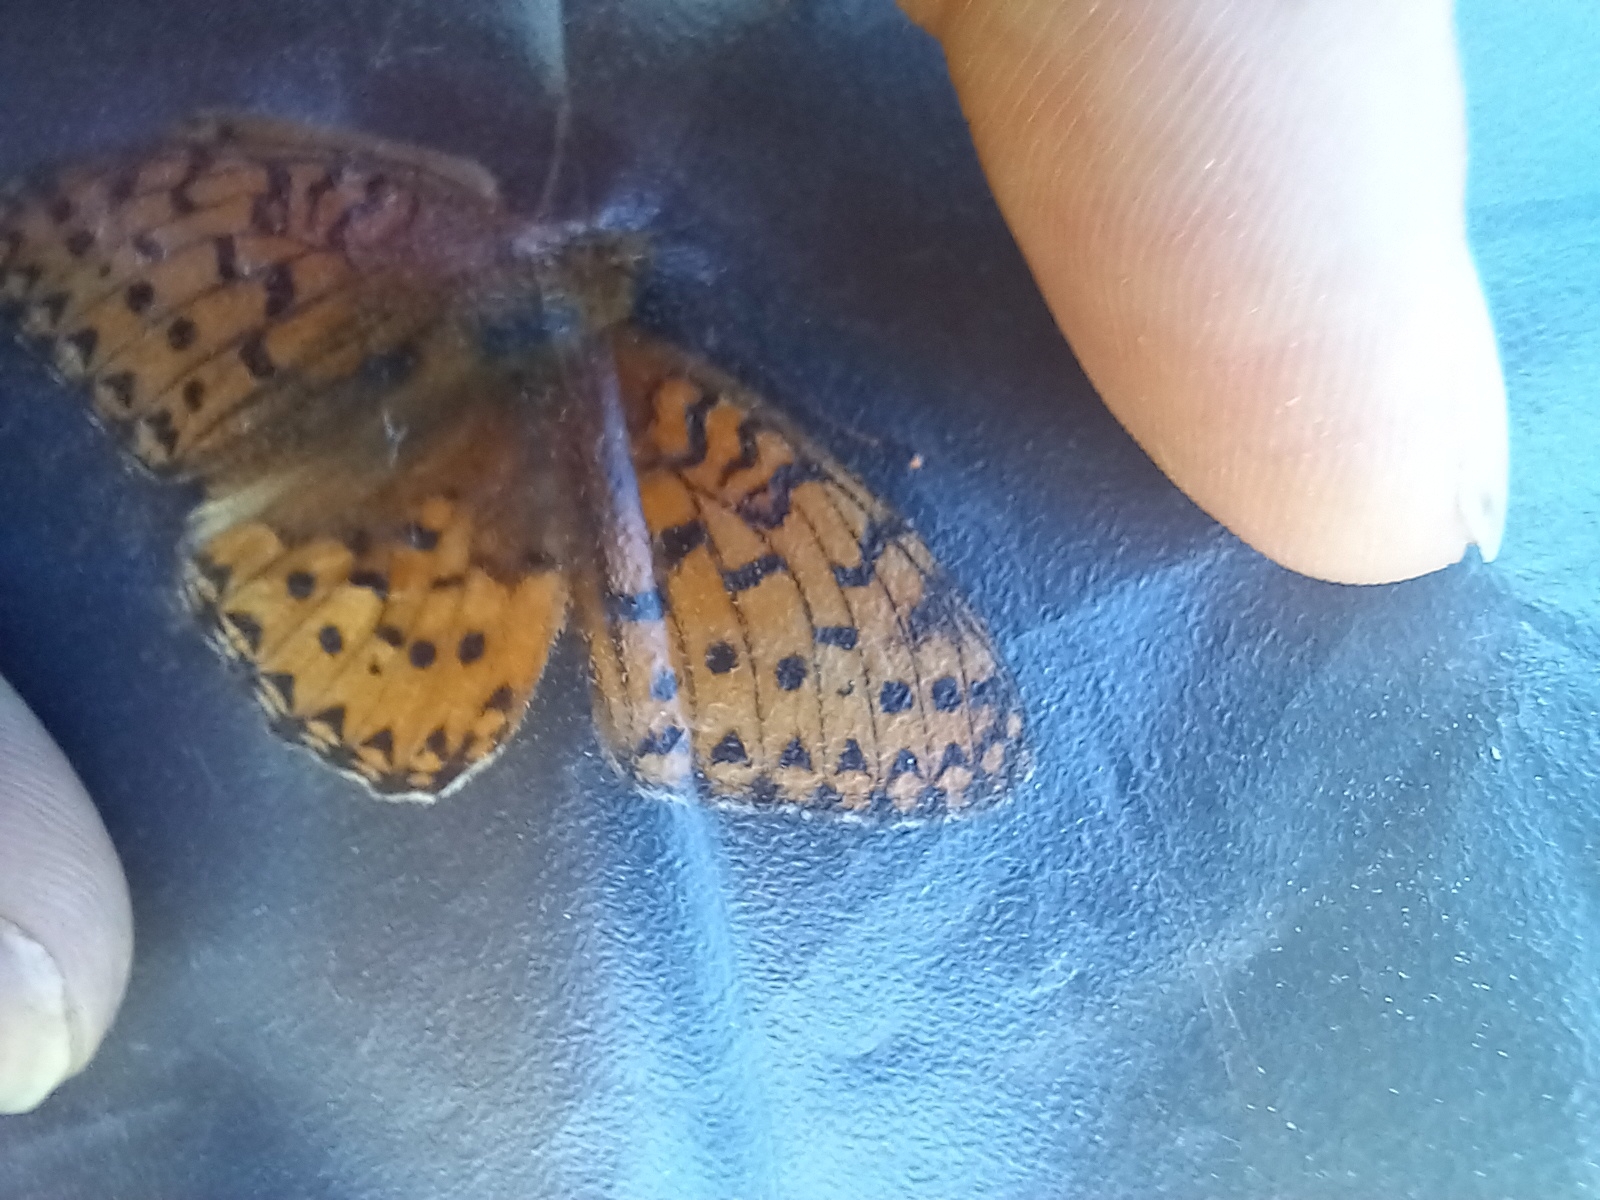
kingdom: Animalia
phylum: Arthropoda
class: Insecta
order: Lepidoptera
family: Nymphalidae
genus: Speyeria
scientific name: Speyeria aglaja
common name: Dark green fritillary
